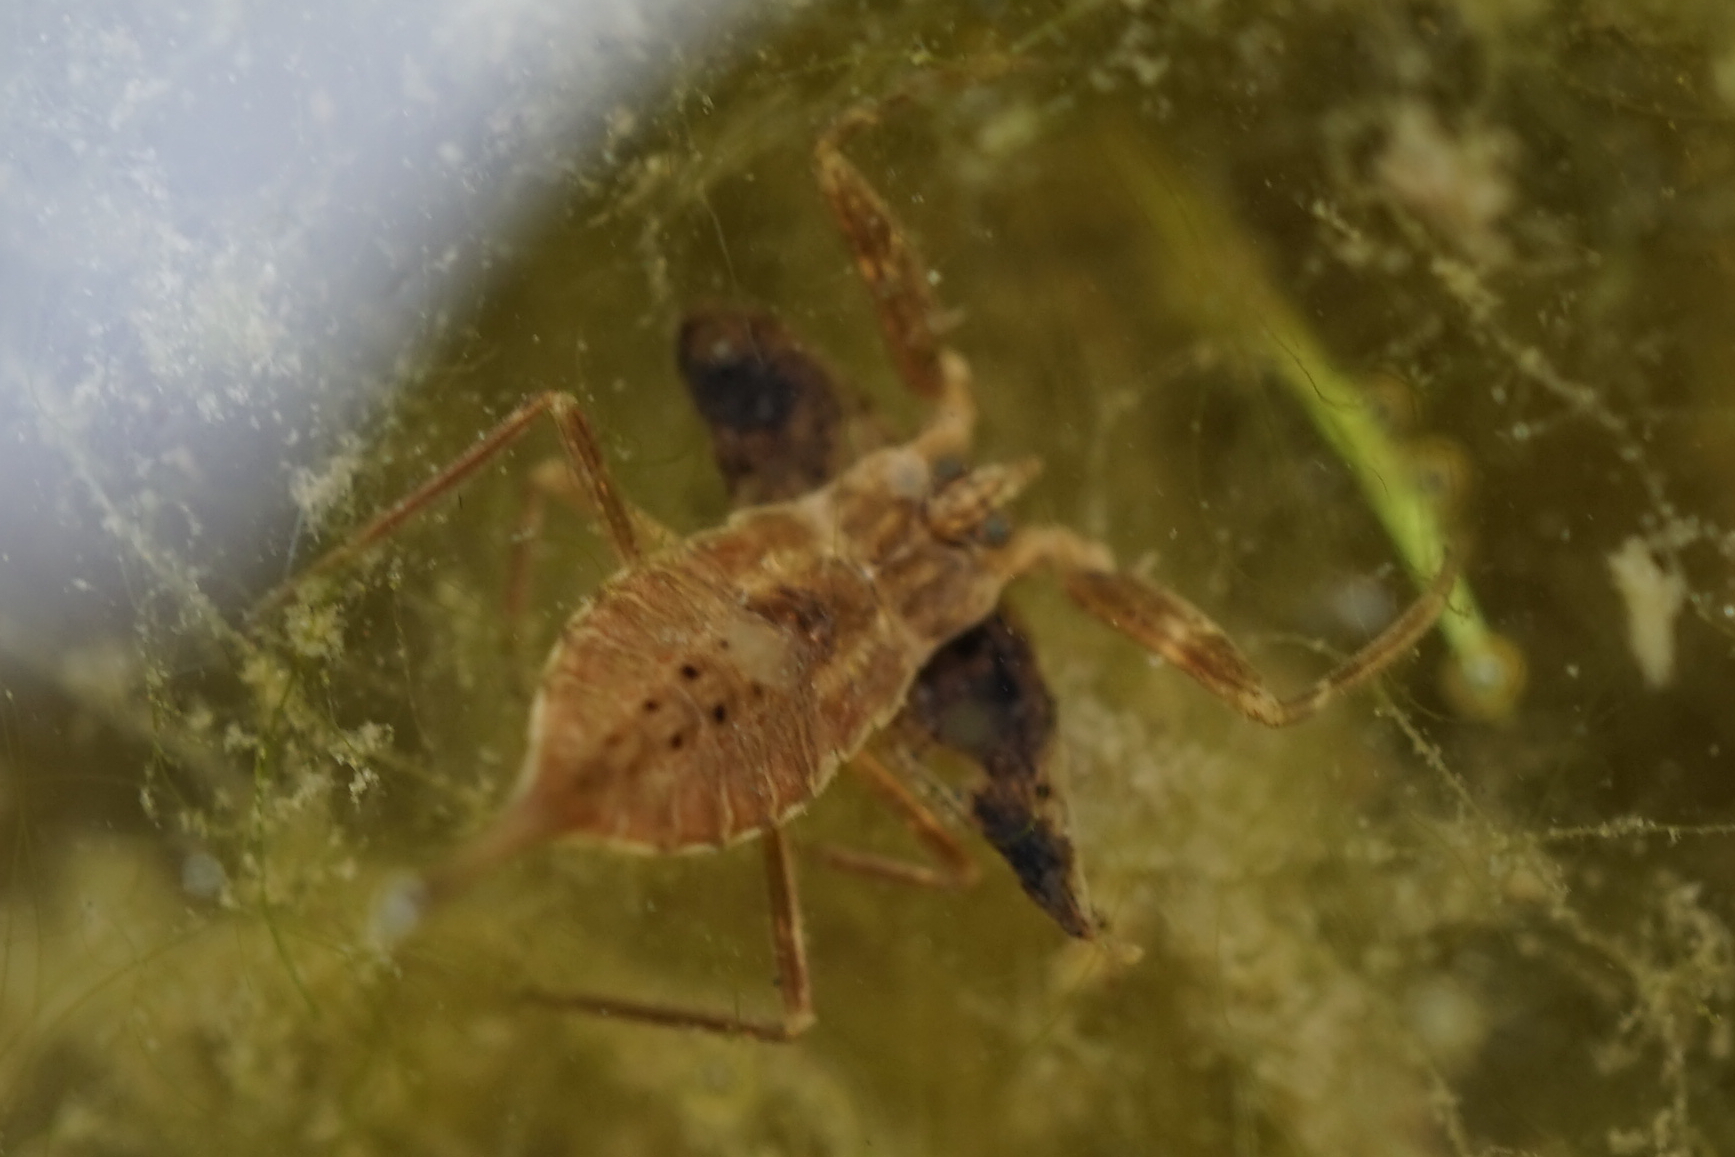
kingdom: Animalia
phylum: Arthropoda
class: Insecta
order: Hemiptera
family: Nepidae
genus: Laccotrephes
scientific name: Laccotrephes japonensis
